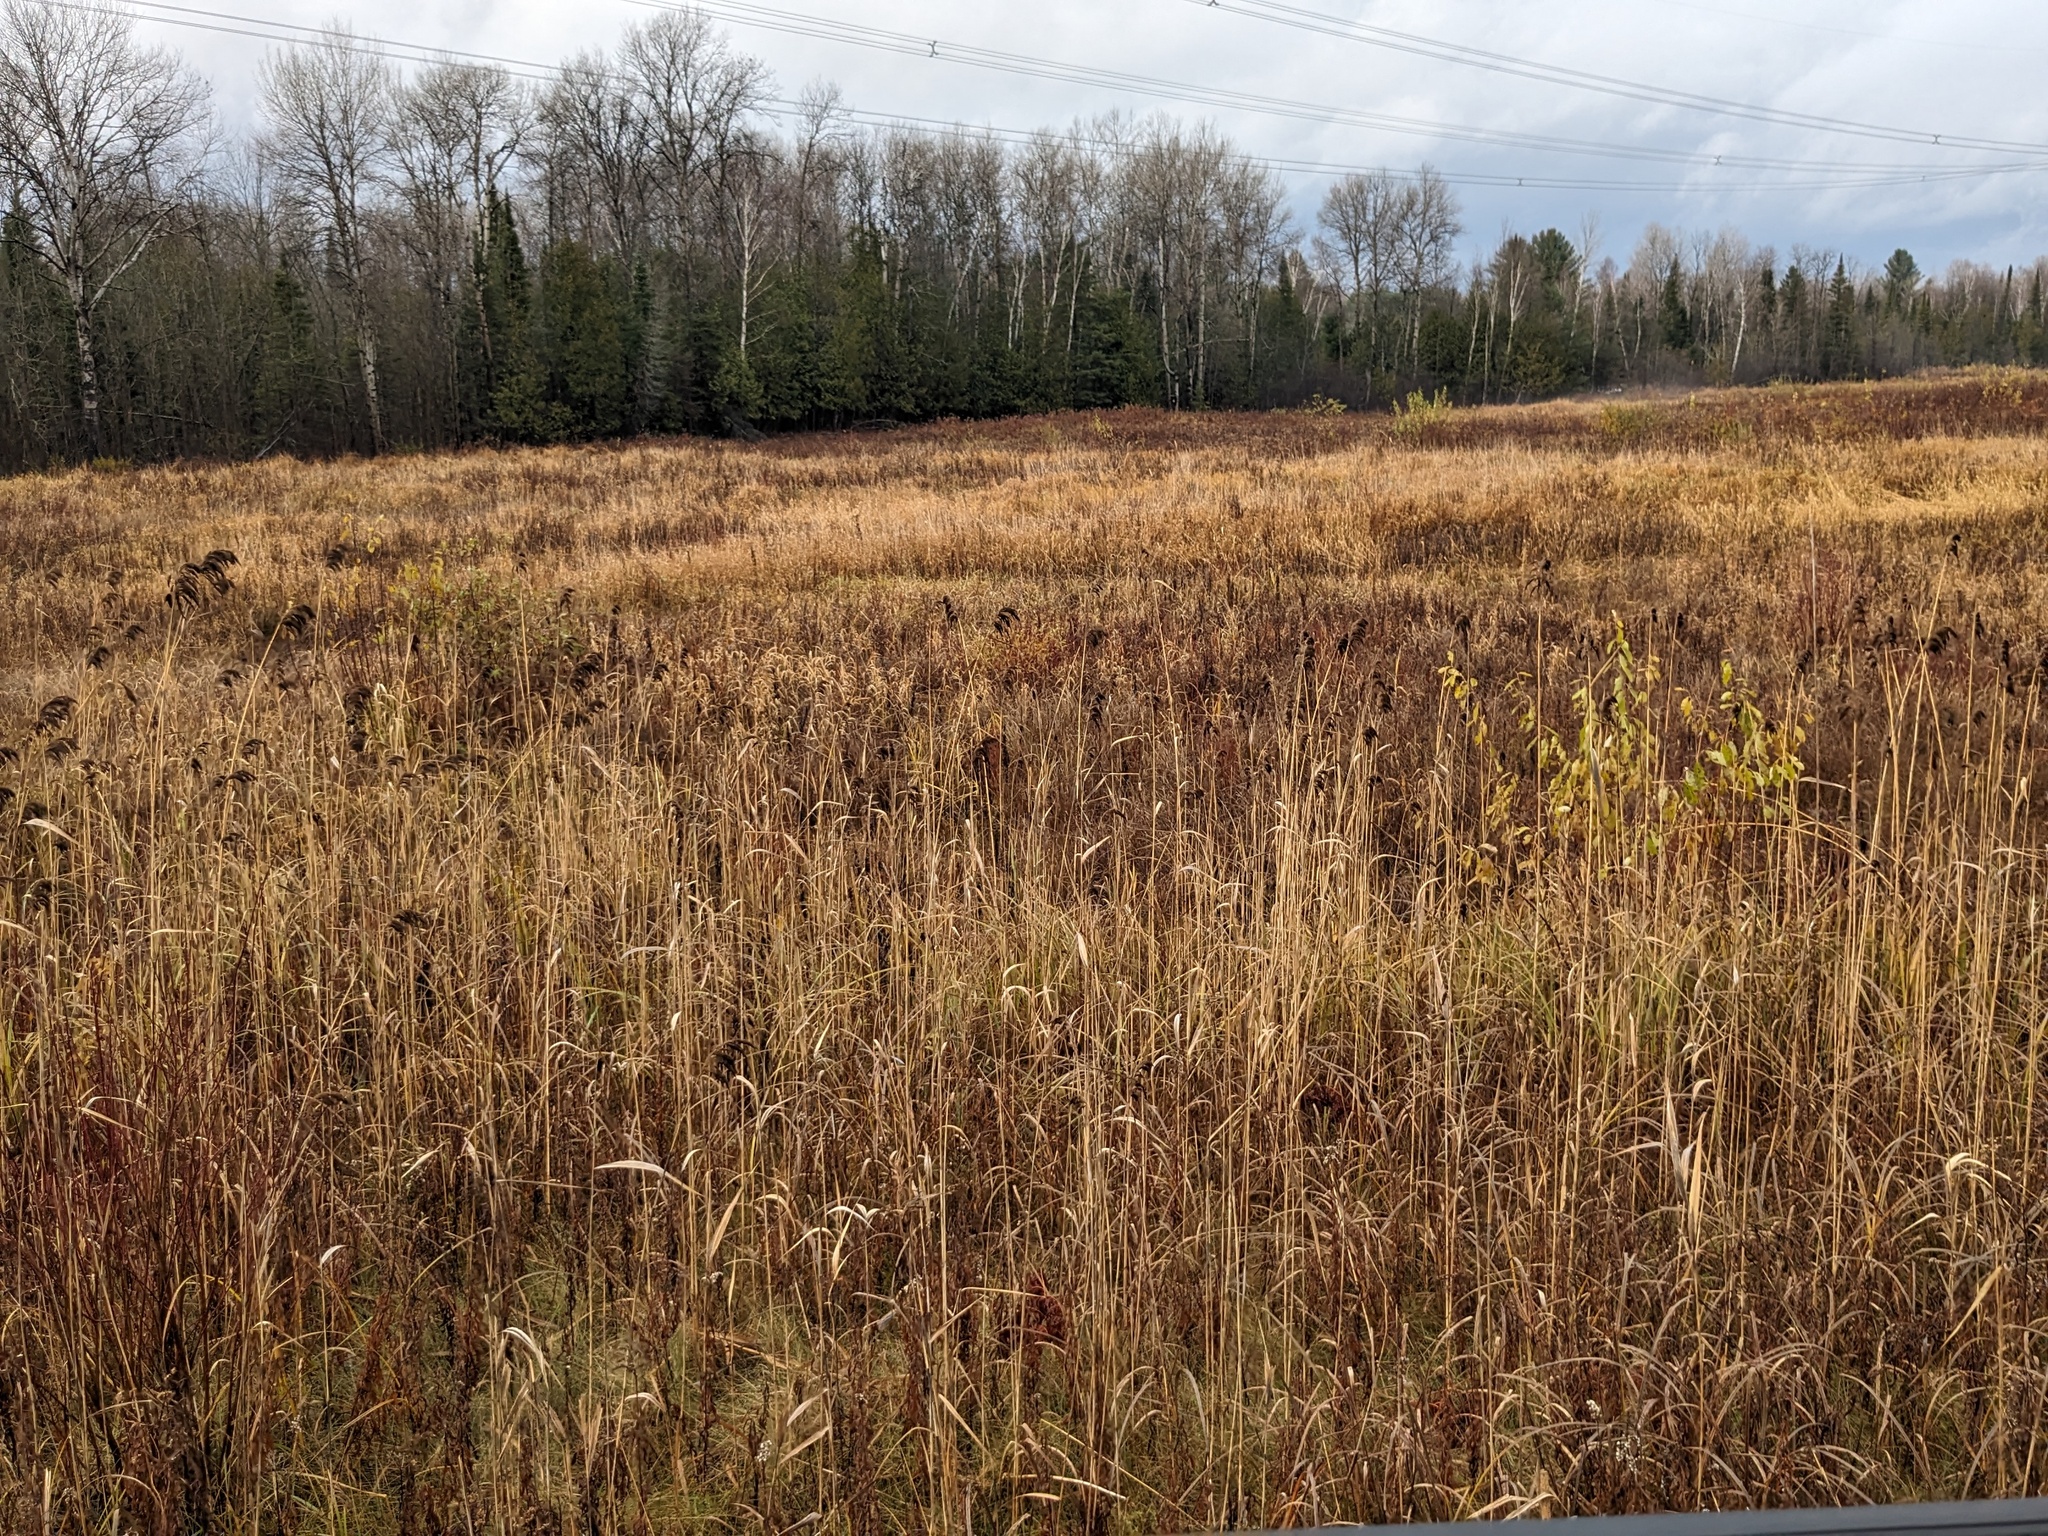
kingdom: Plantae
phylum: Tracheophyta
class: Liliopsida
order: Poales
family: Poaceae
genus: Phragmites
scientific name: Phragmites australis
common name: Common reed
